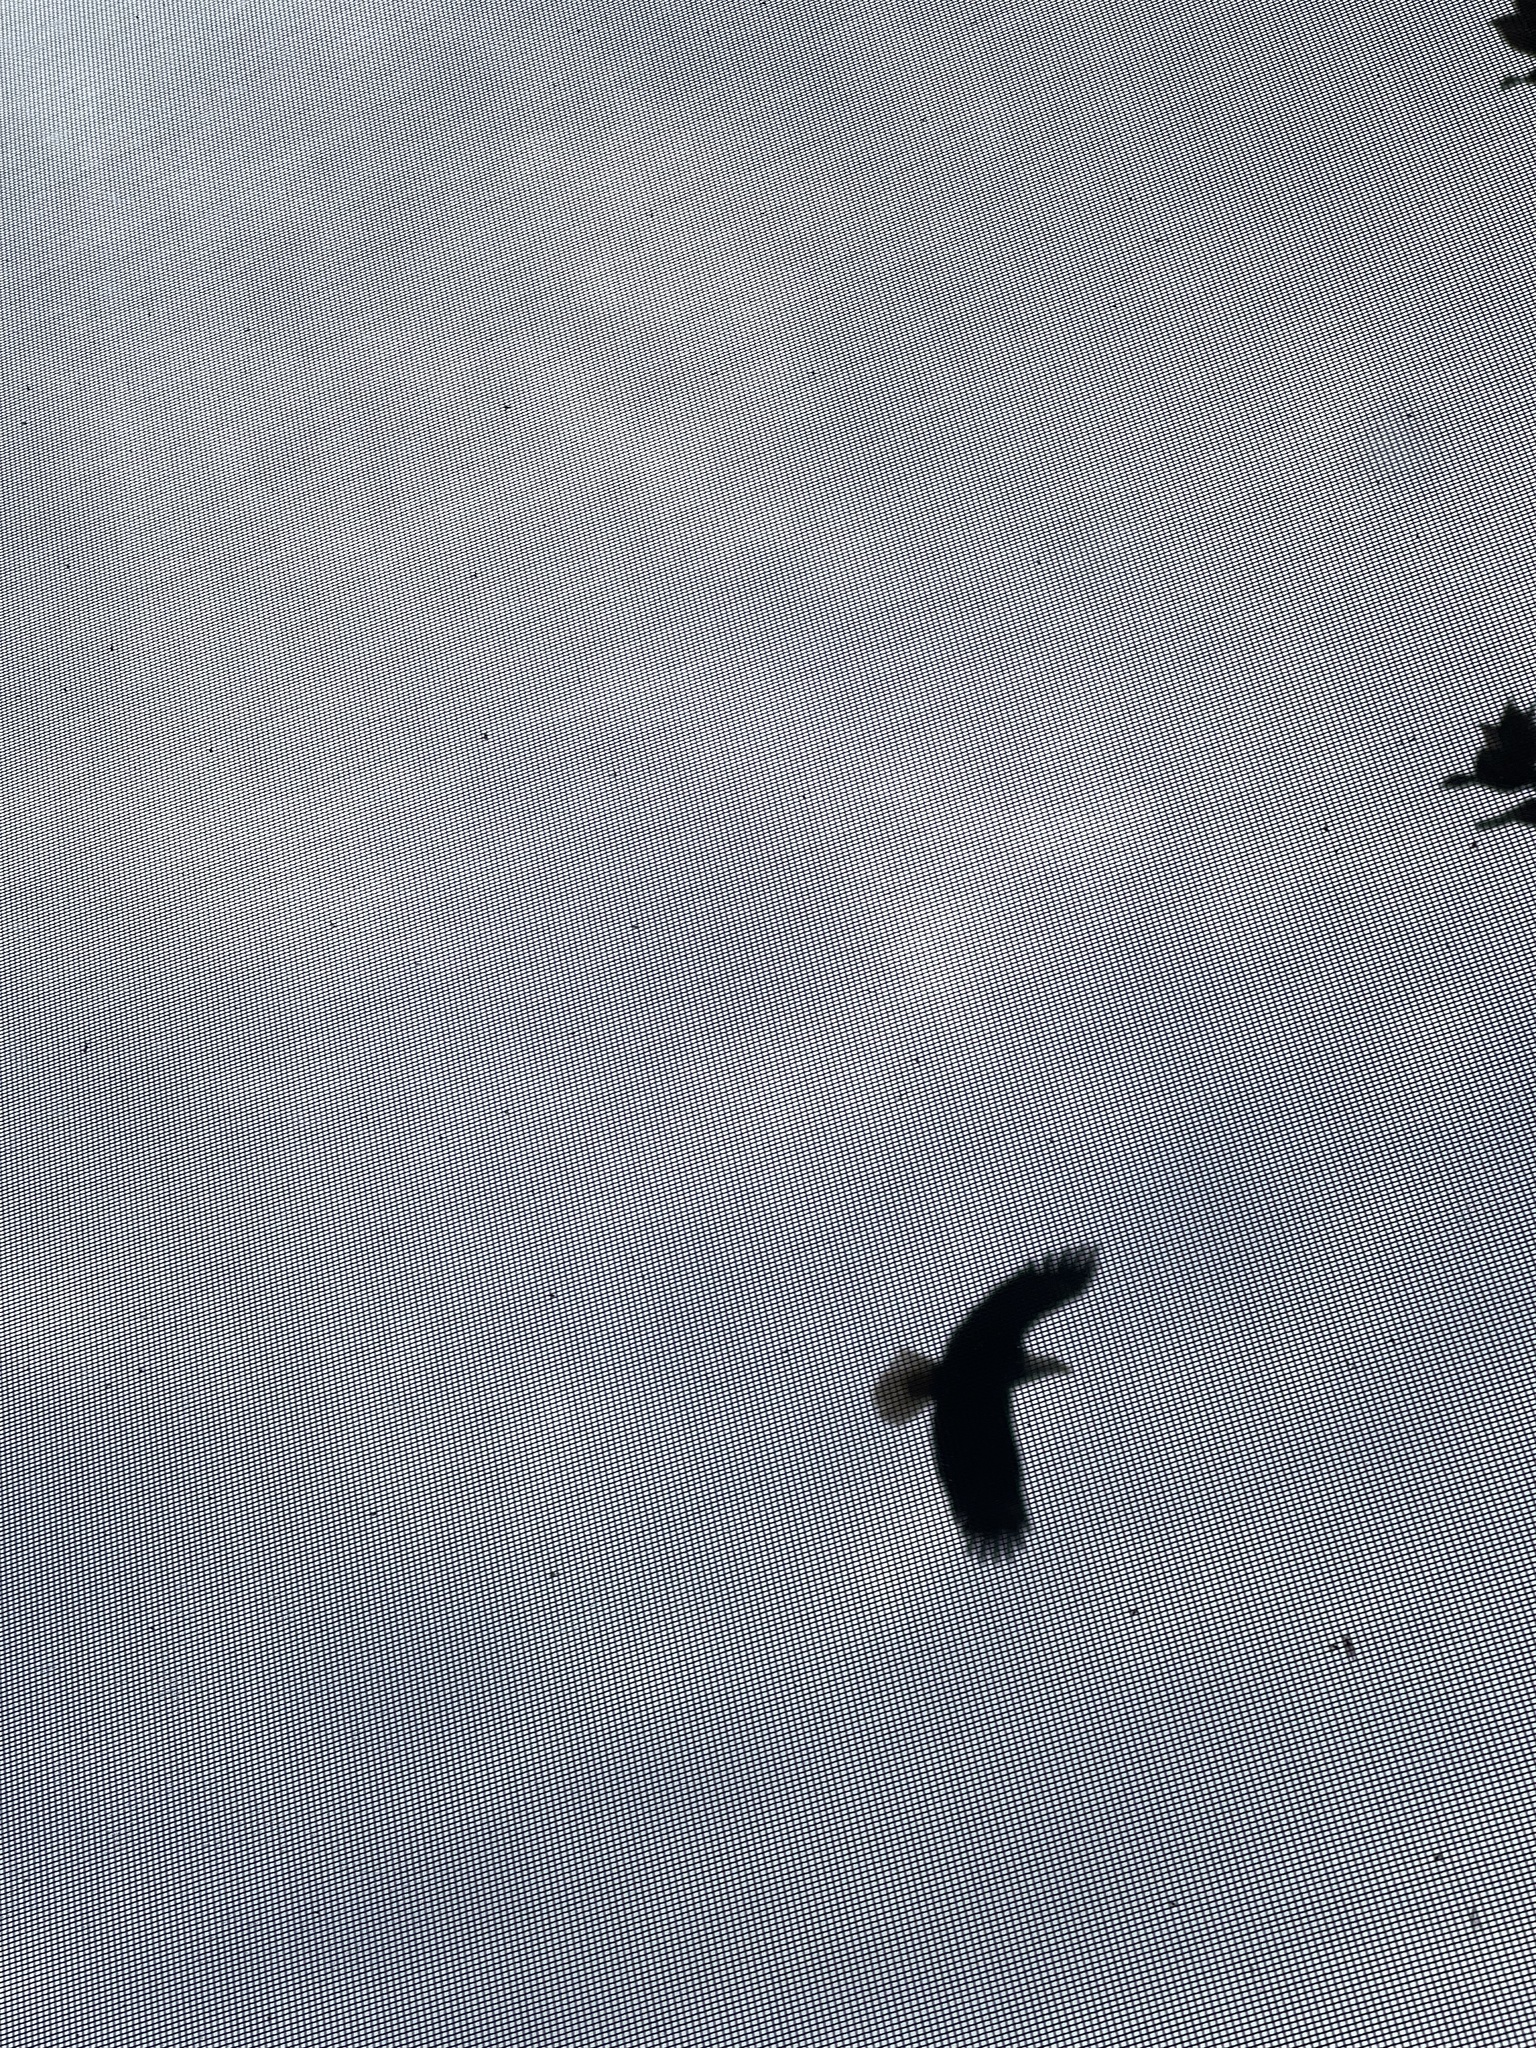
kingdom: Animalia
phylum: Chordata
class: Aves
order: Accipitriformes
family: Accipitridae
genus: Haliaeetus
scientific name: Haliaeetus leucocephalus
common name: Bald eagle
